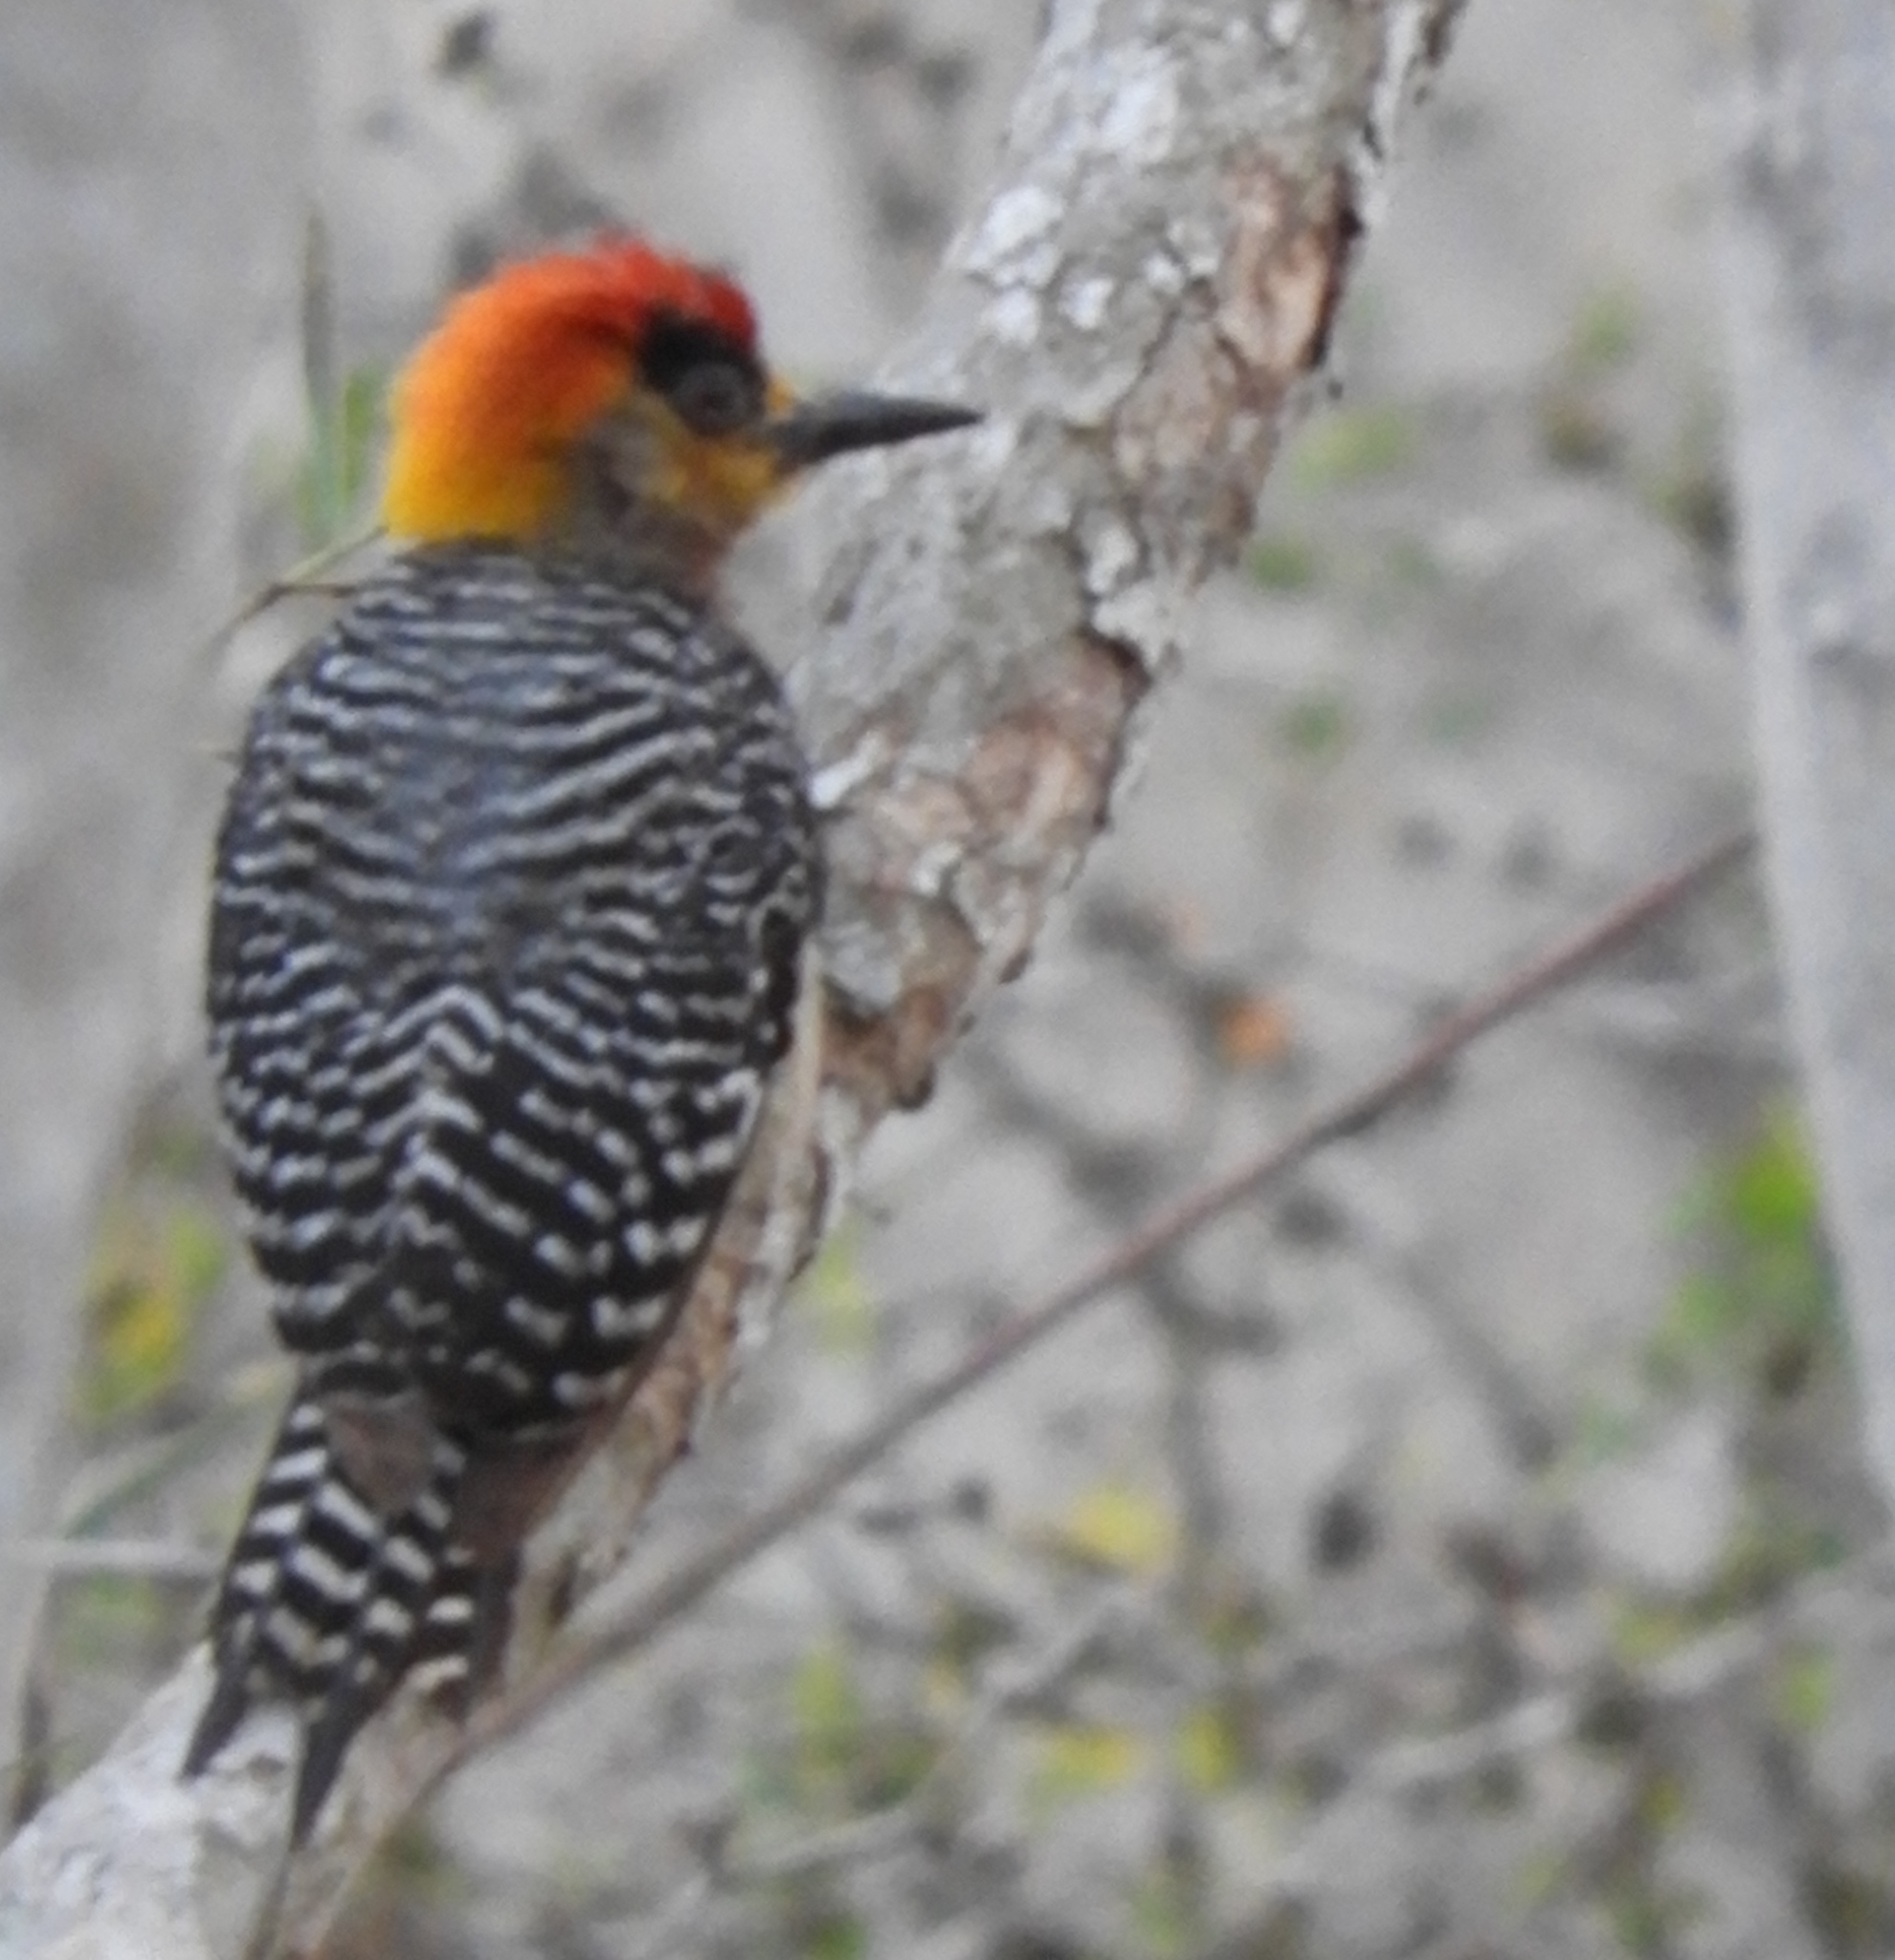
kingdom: Animalia
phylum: Chordata
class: Aves
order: Piciformes
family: Picidae
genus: Melanerpes
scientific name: Melanerpes chrysogenys
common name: Golden-cheeked woodpecker
